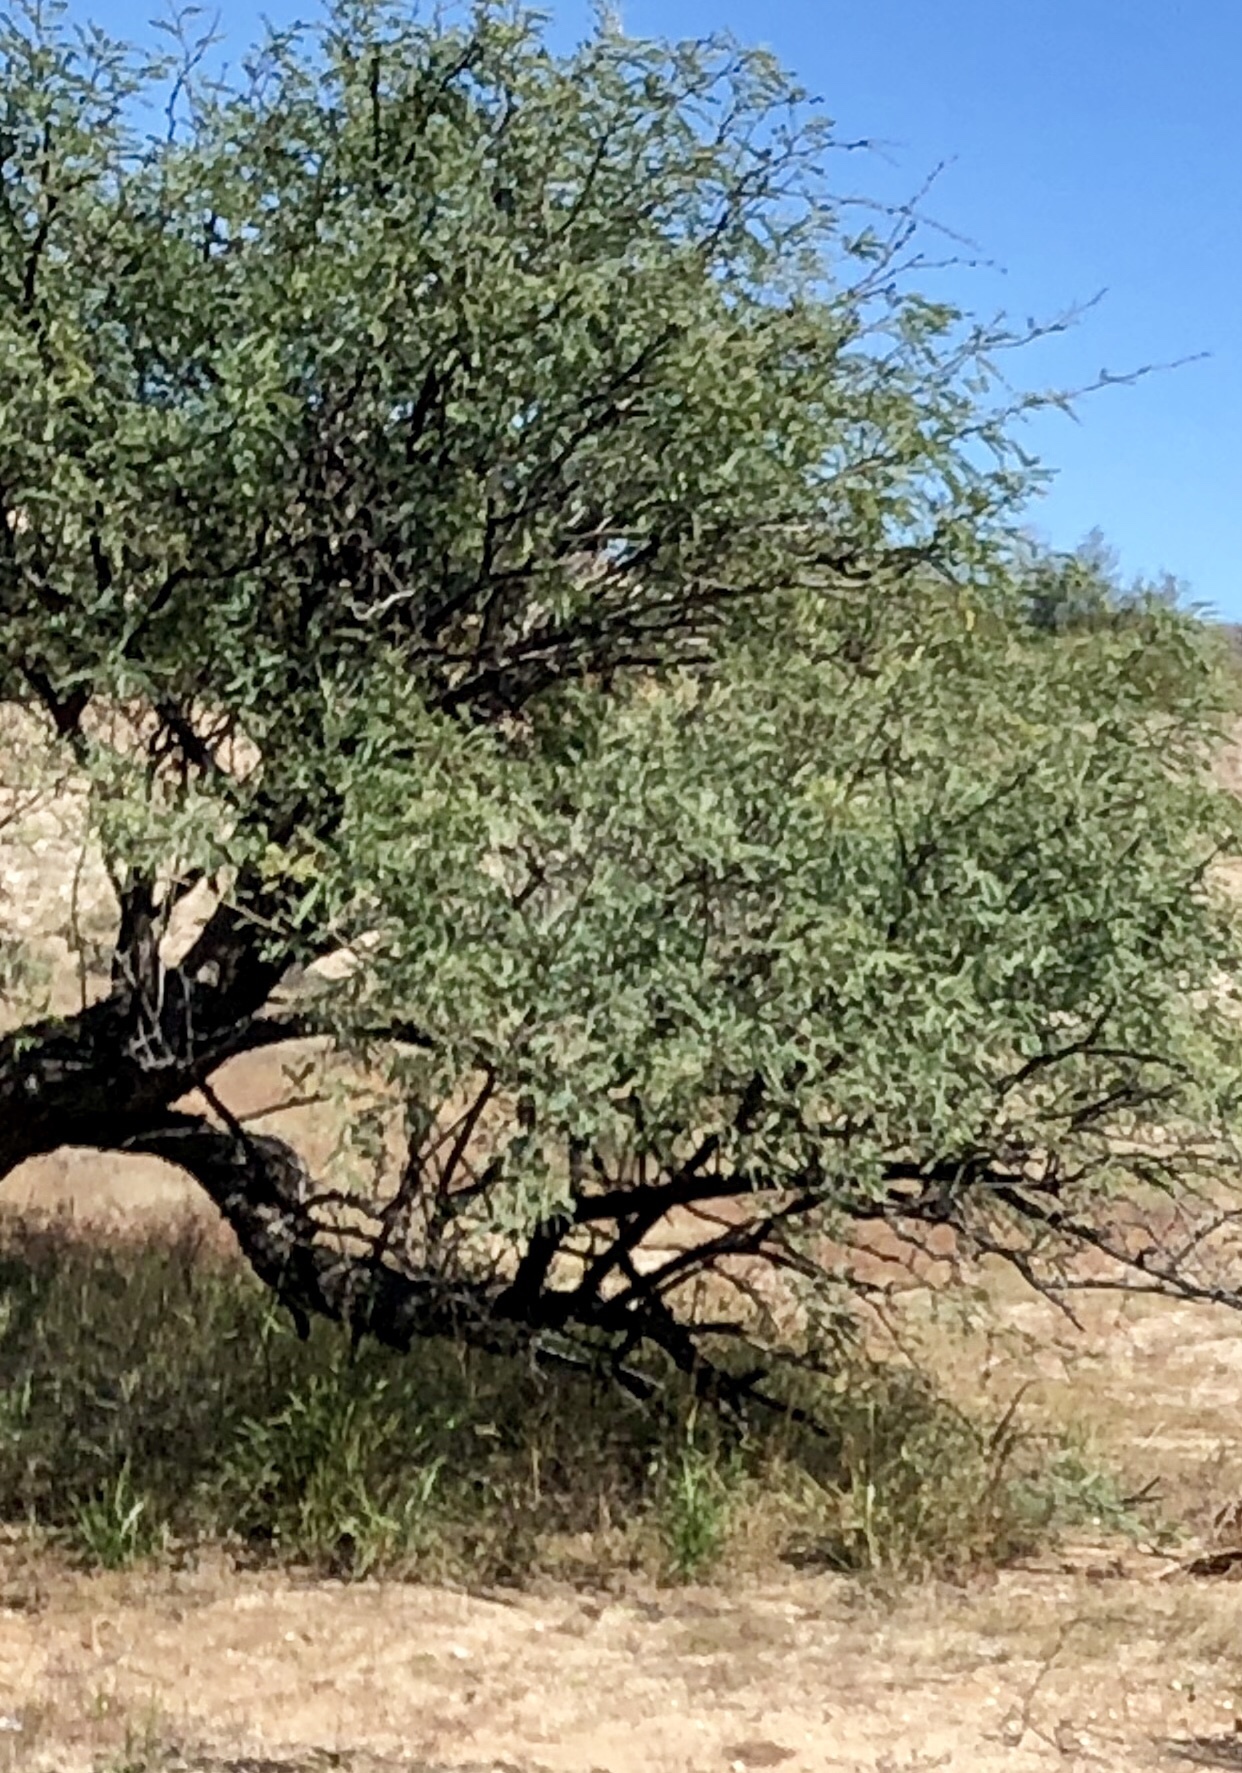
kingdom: Plantae
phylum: Tracheophyta
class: Magnoliopsida
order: Fabales
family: Fabaceae
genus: Prosopis
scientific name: Prosopis velutina
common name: Velvet mesquite
